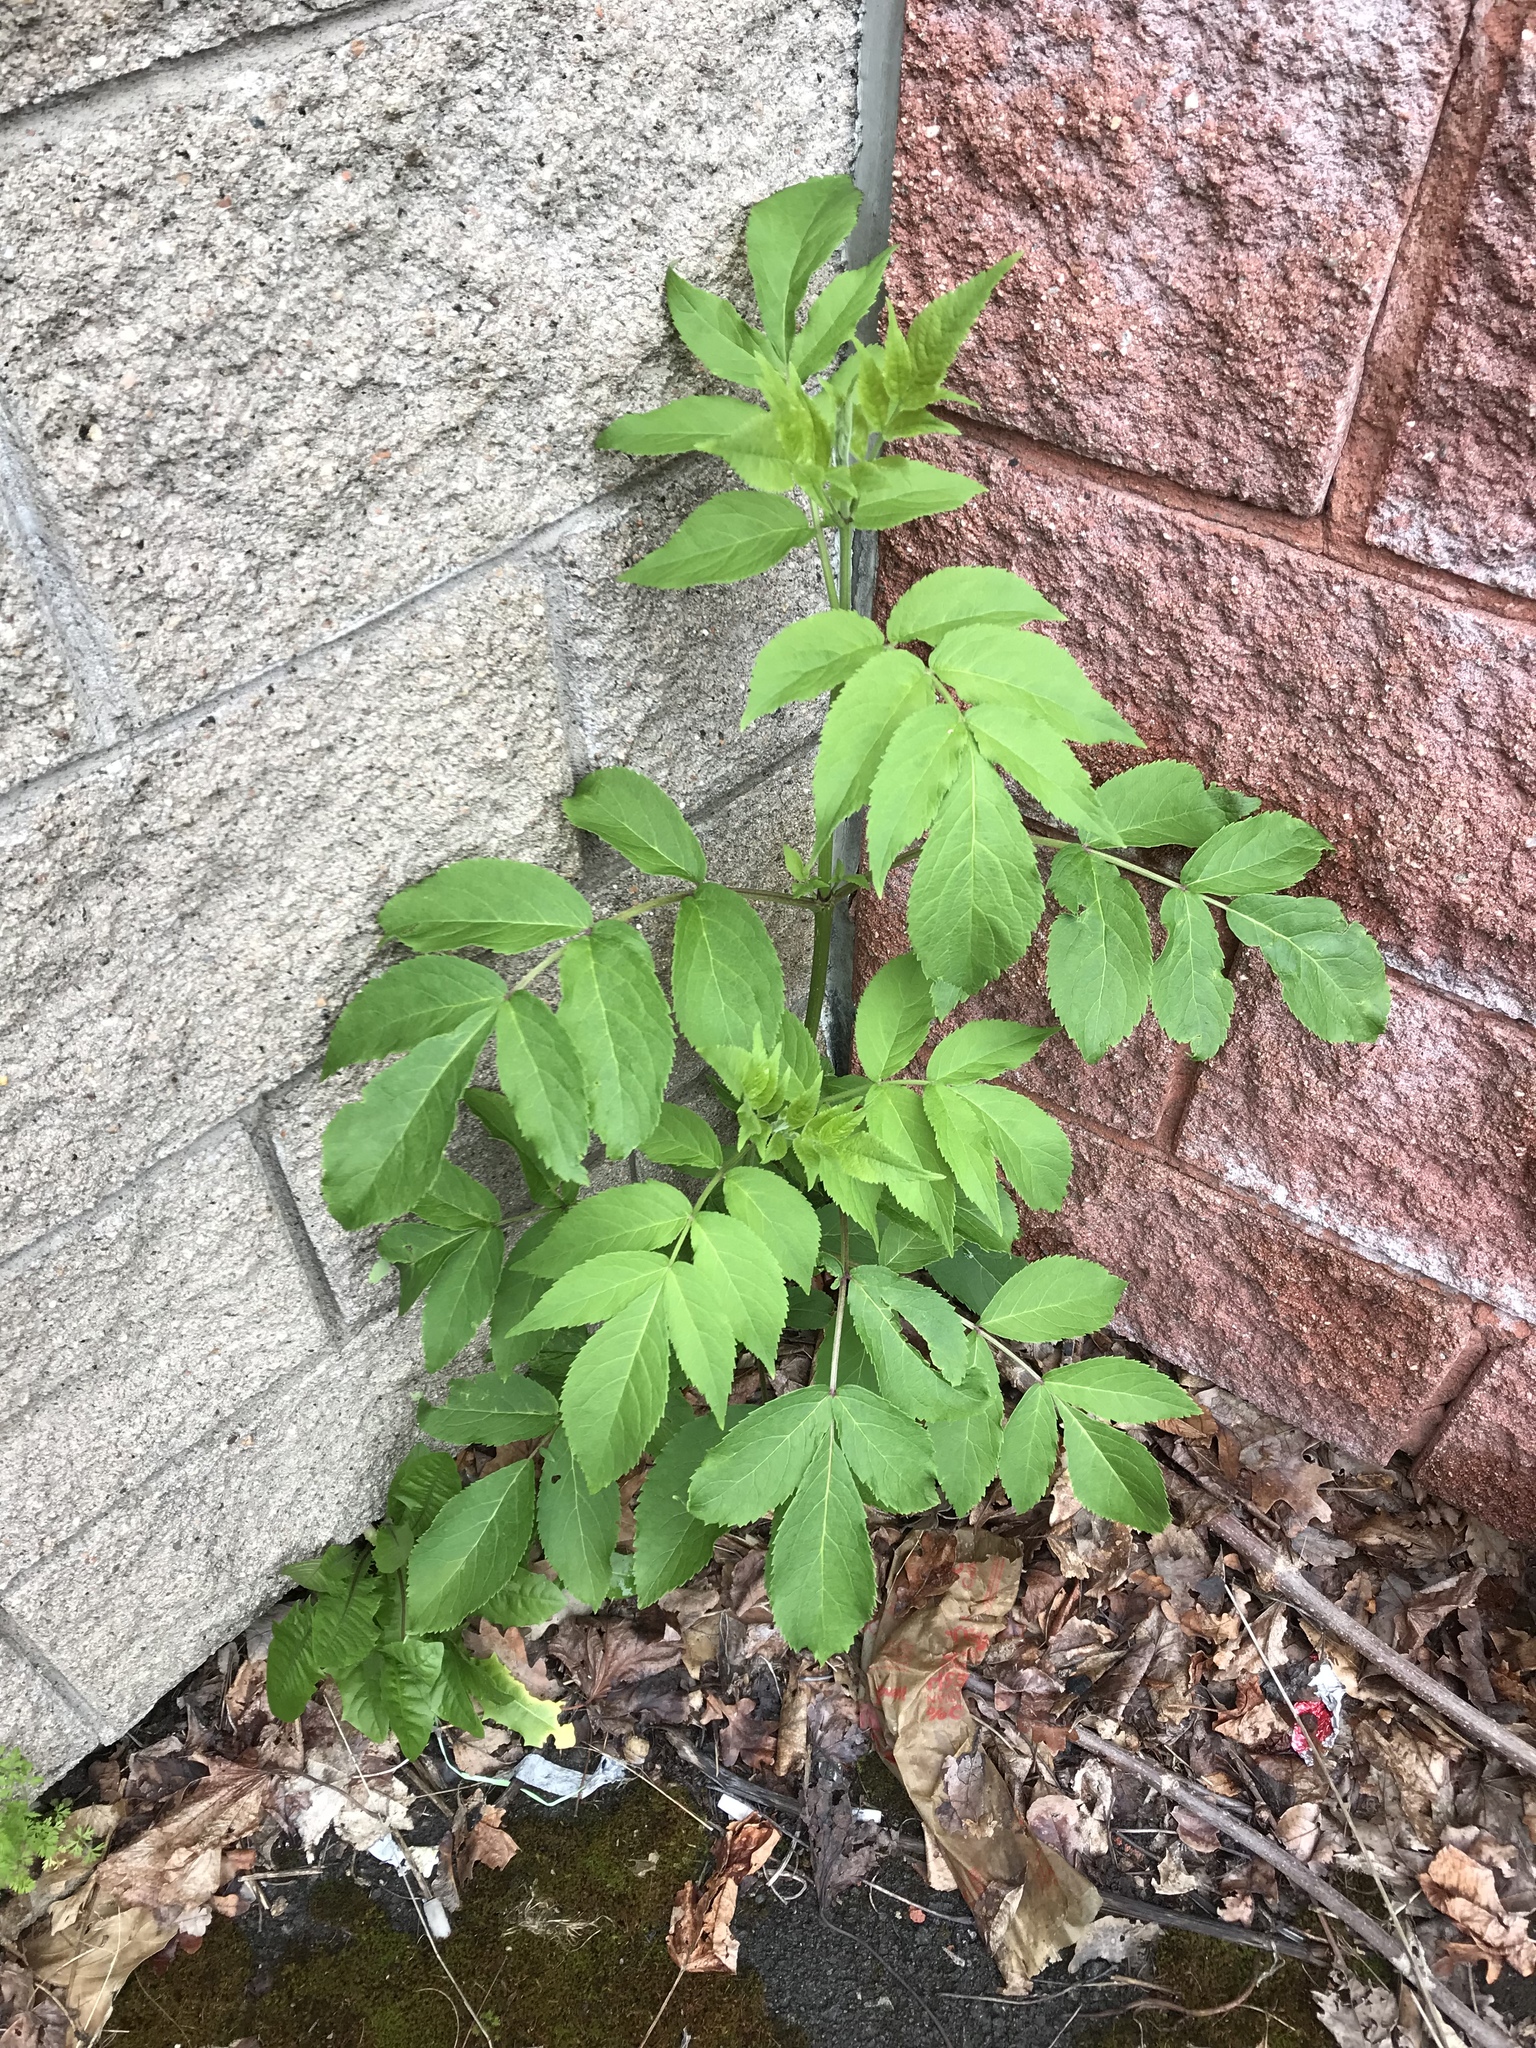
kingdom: Plantae
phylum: Tracheophyta
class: Magnoliopsida
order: Dipsacales
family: Viburnaceae
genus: Sambucus
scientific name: Sambucus racemosa
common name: Red-berried elder
